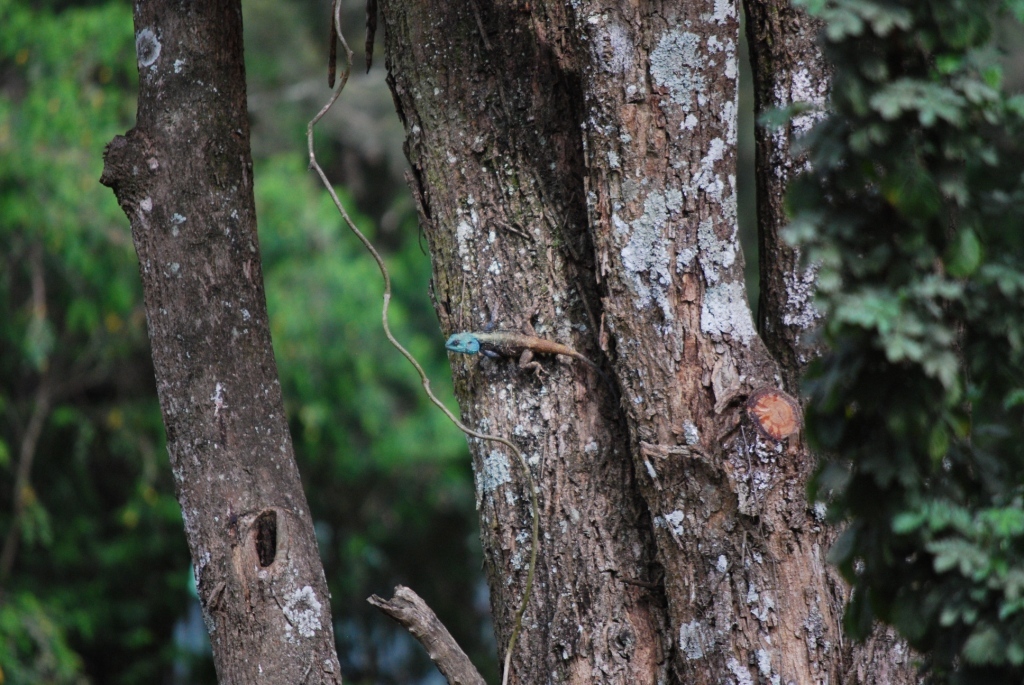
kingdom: Animalia
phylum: Chordata
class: Squamata
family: Agamidae
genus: Acanthocercus
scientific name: Acanthocercus atricollis
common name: Southern tree agama
